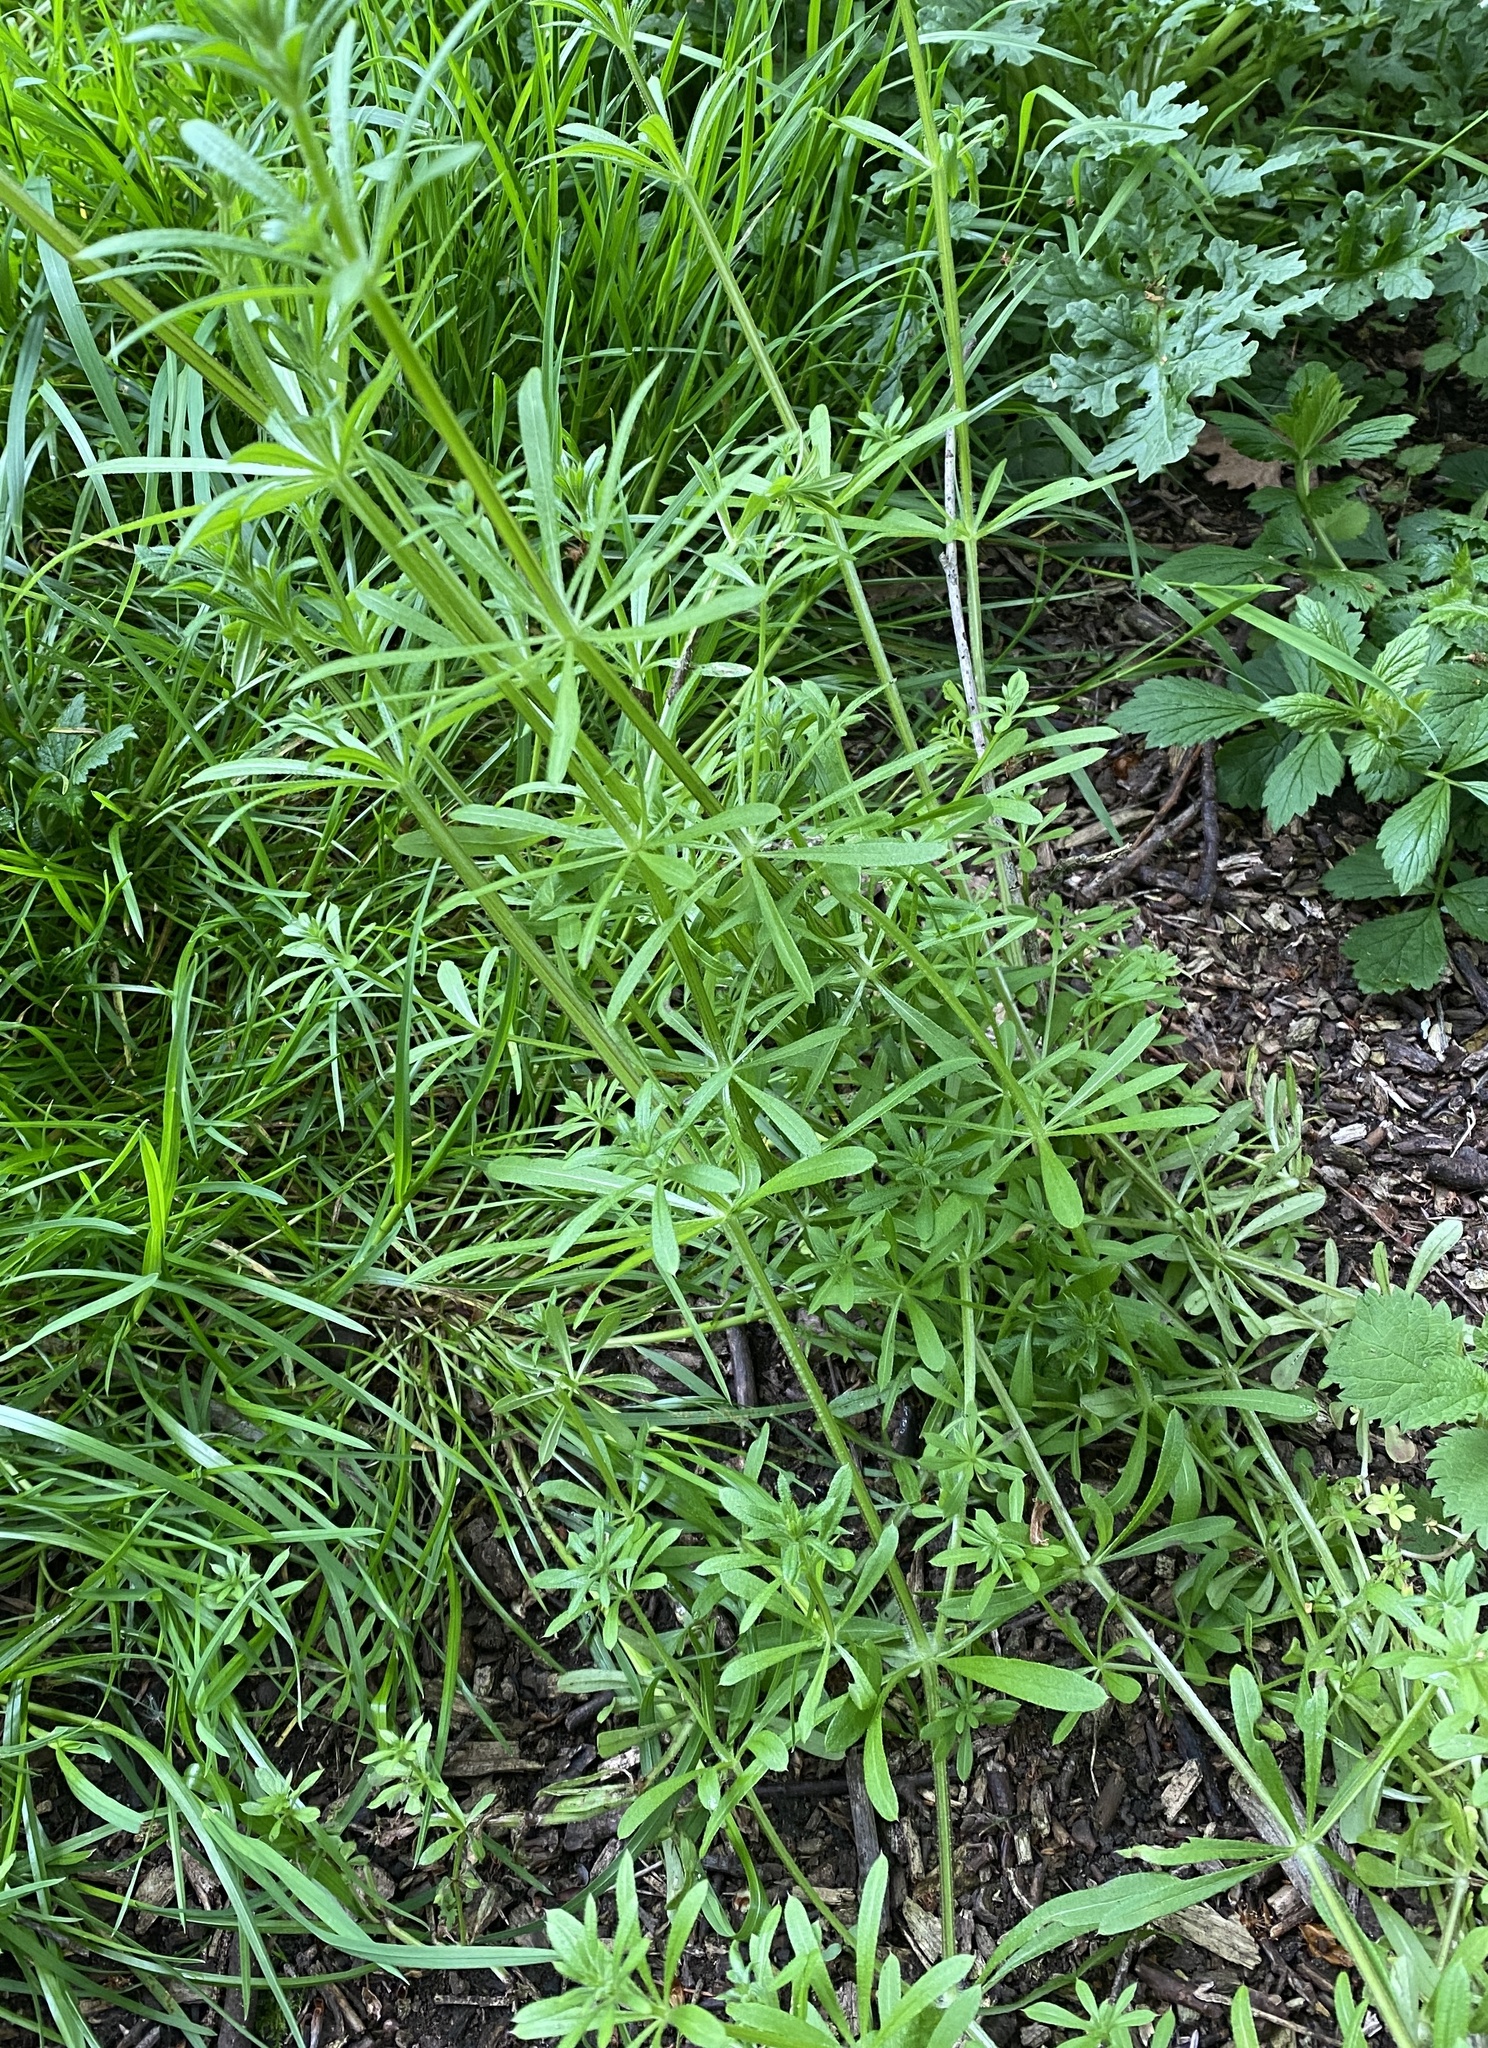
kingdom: Plantae
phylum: Tracheophyta
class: Magnoliopsida
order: Gentianales
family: Rubiaceae
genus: Galium
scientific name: Galium aparine
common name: Cleavers
